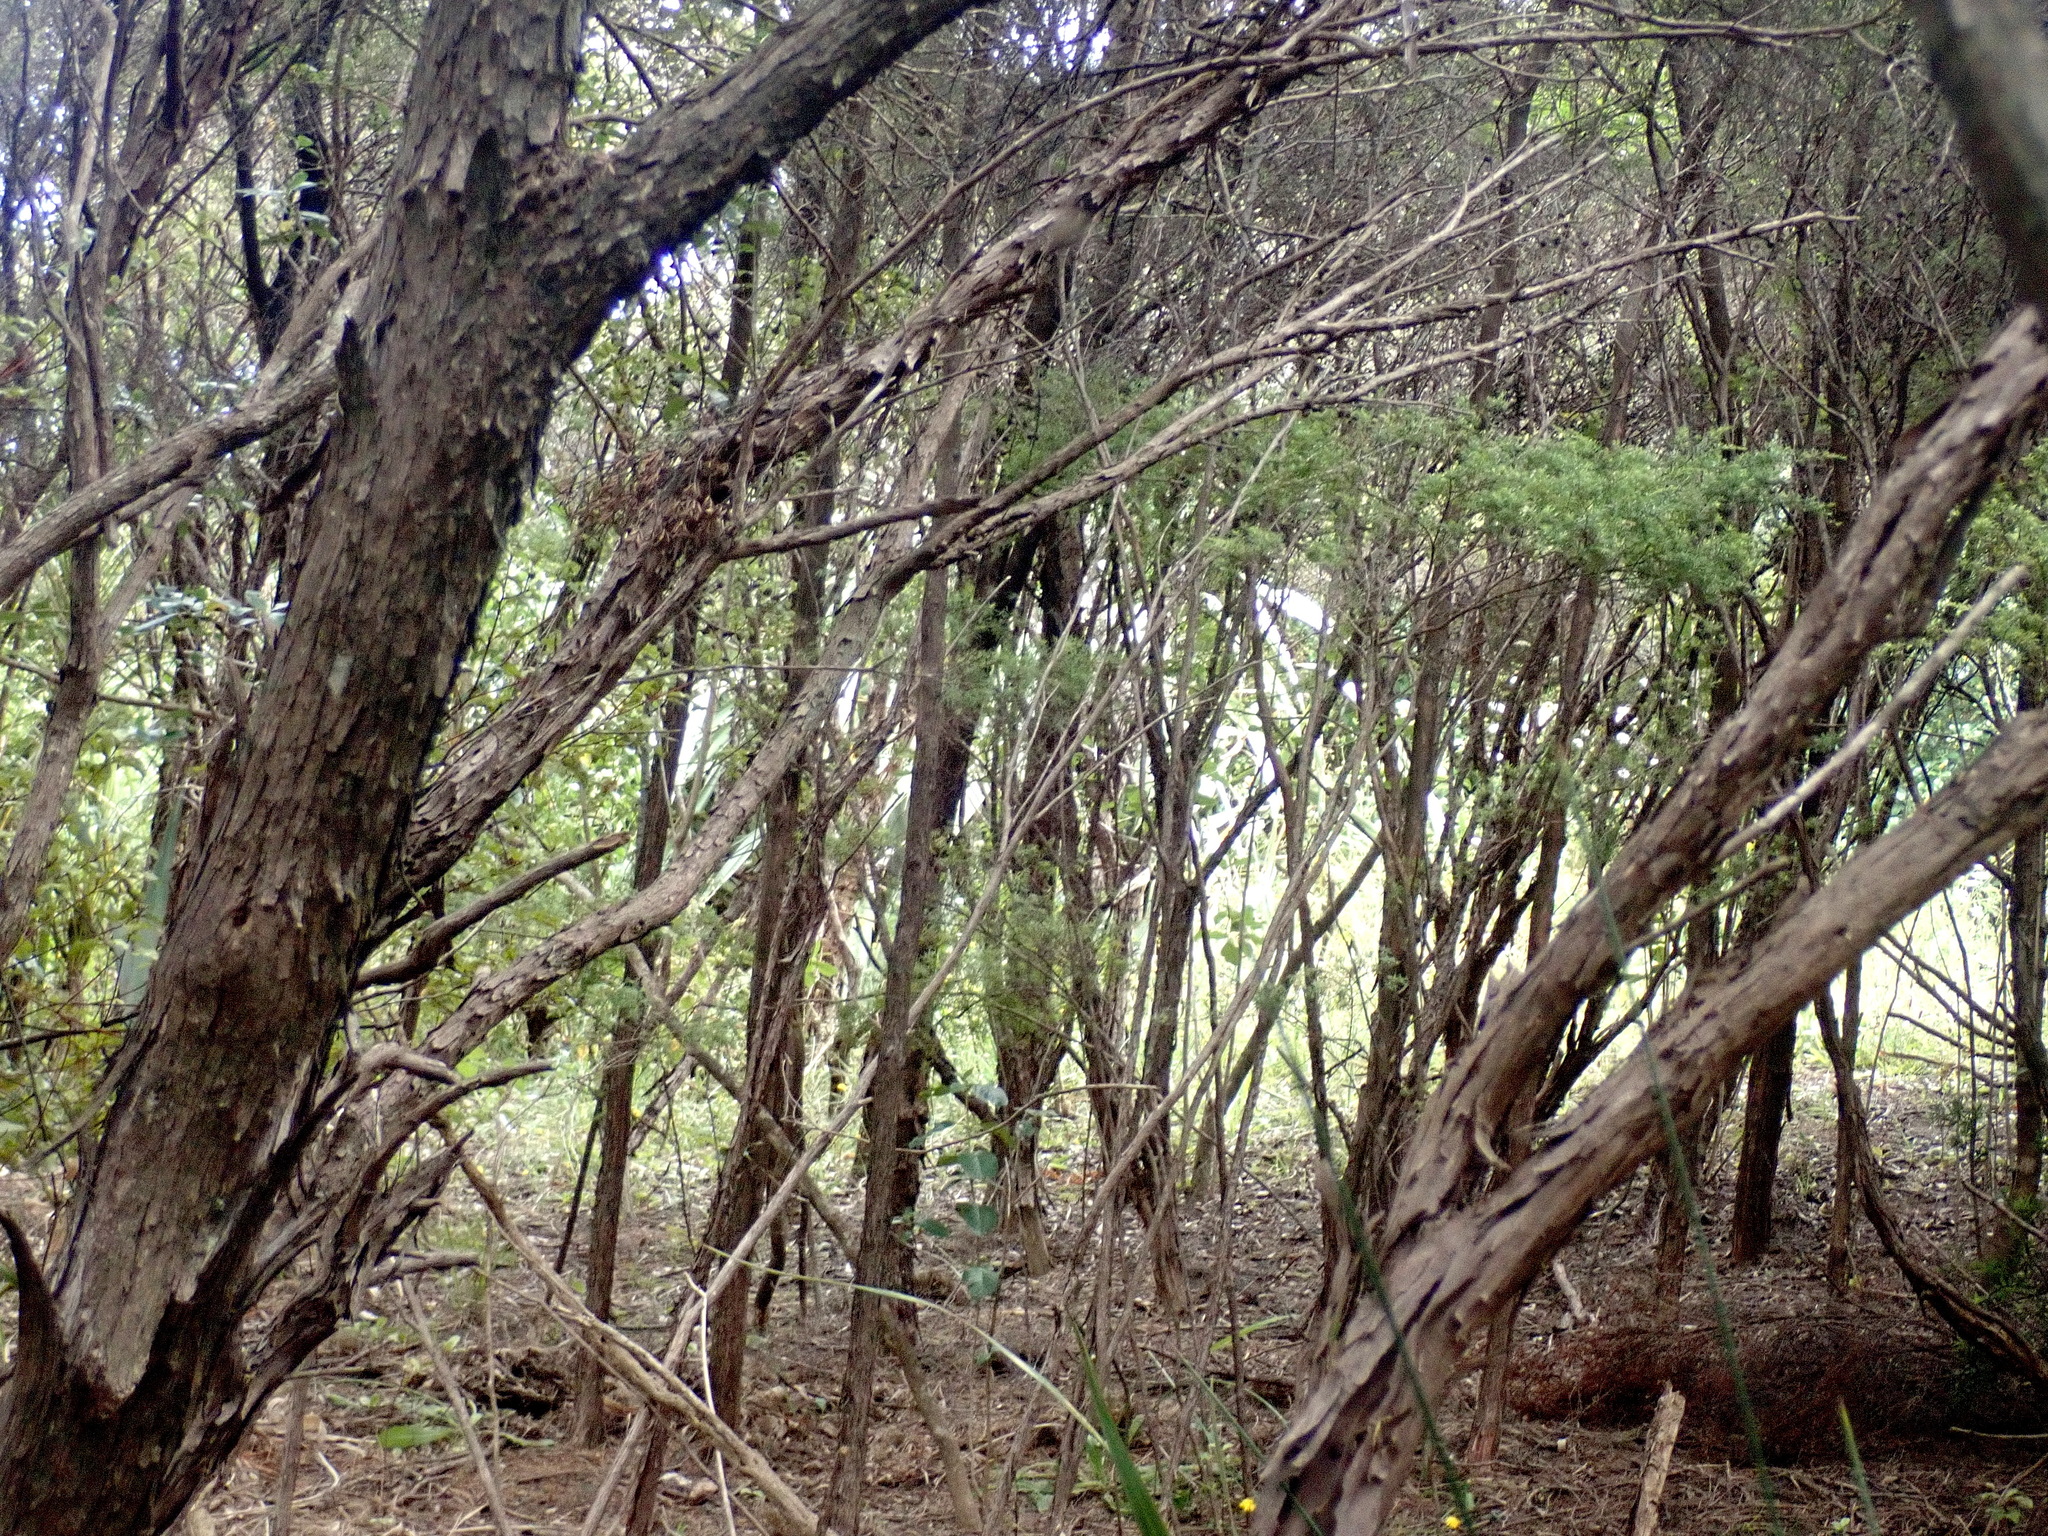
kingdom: Plantae
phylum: Tracheophyta
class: Magnoliopsida
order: Myrtales
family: Myrtaceae
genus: Leptospermum
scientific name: Leptospermum scoparium
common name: Broom tea-tree
